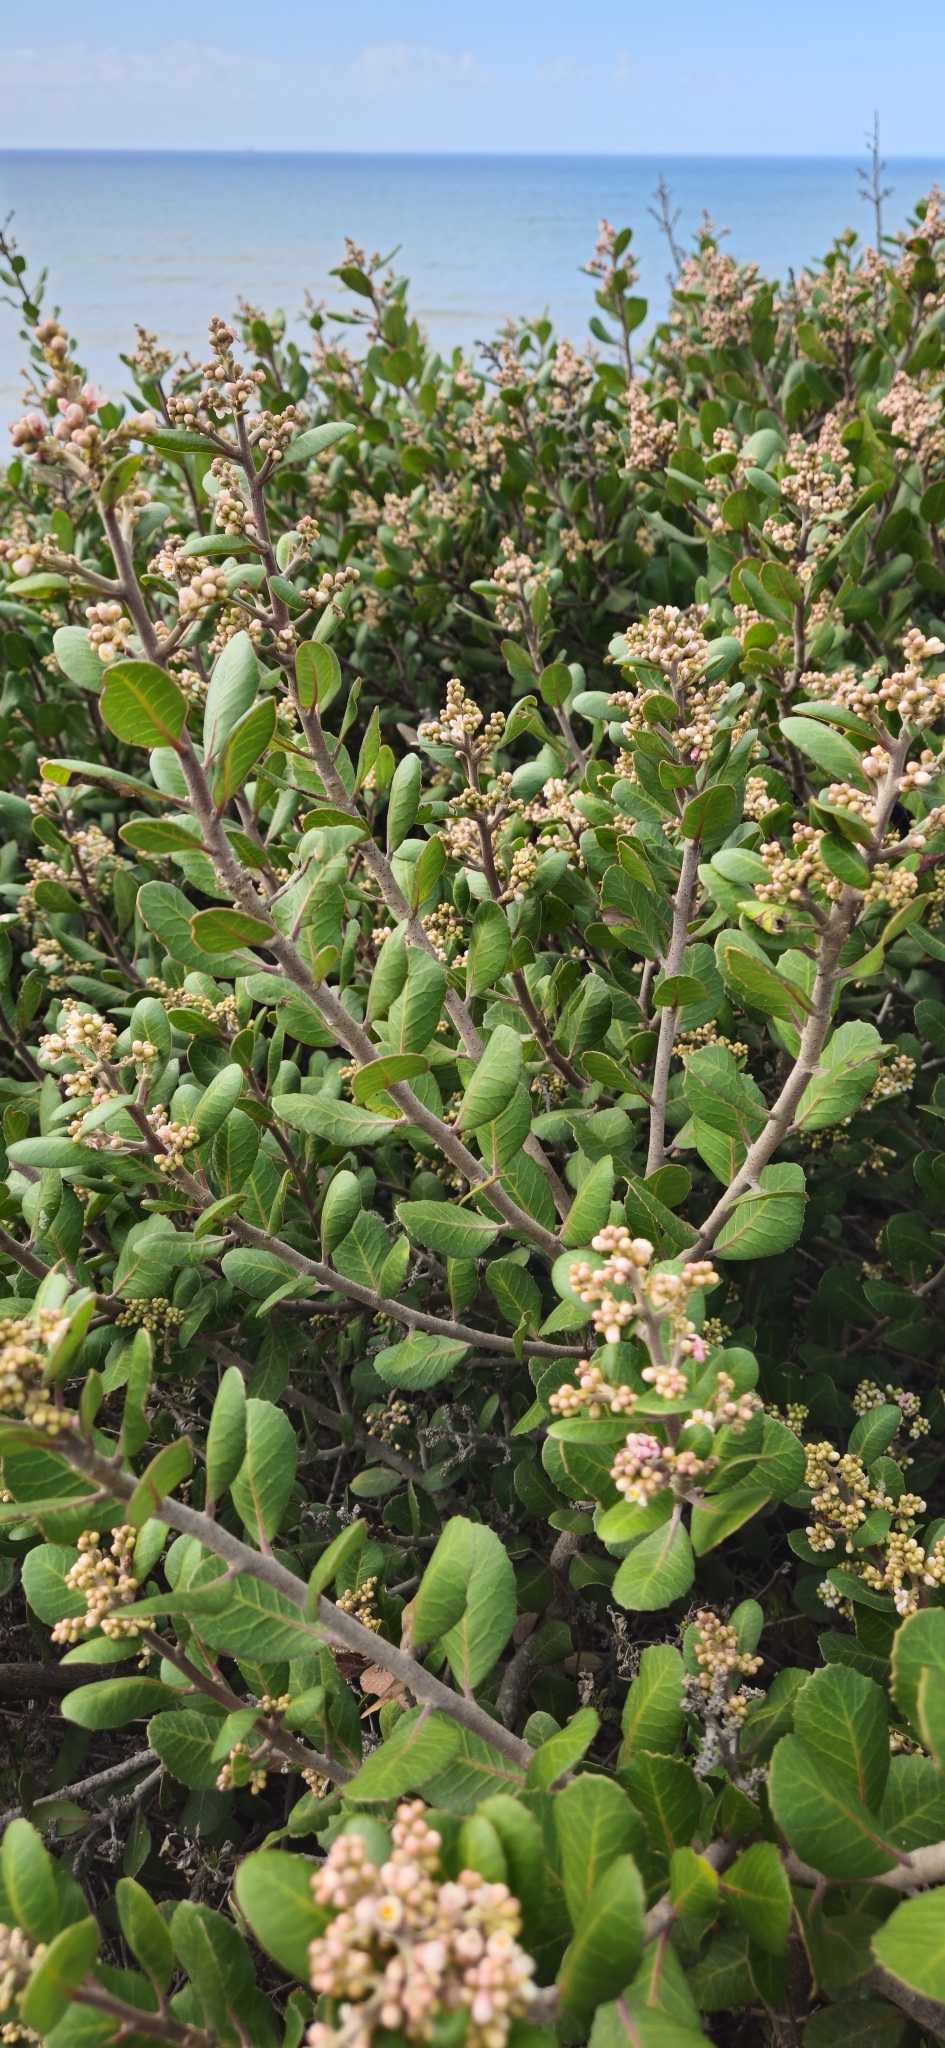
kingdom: Plantae
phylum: Tracheophyta
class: Magnoliopsida
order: Sapindales
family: Anacardiaceae
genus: Rhus
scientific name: Rhus integrifolia
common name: Lemonade sumac
